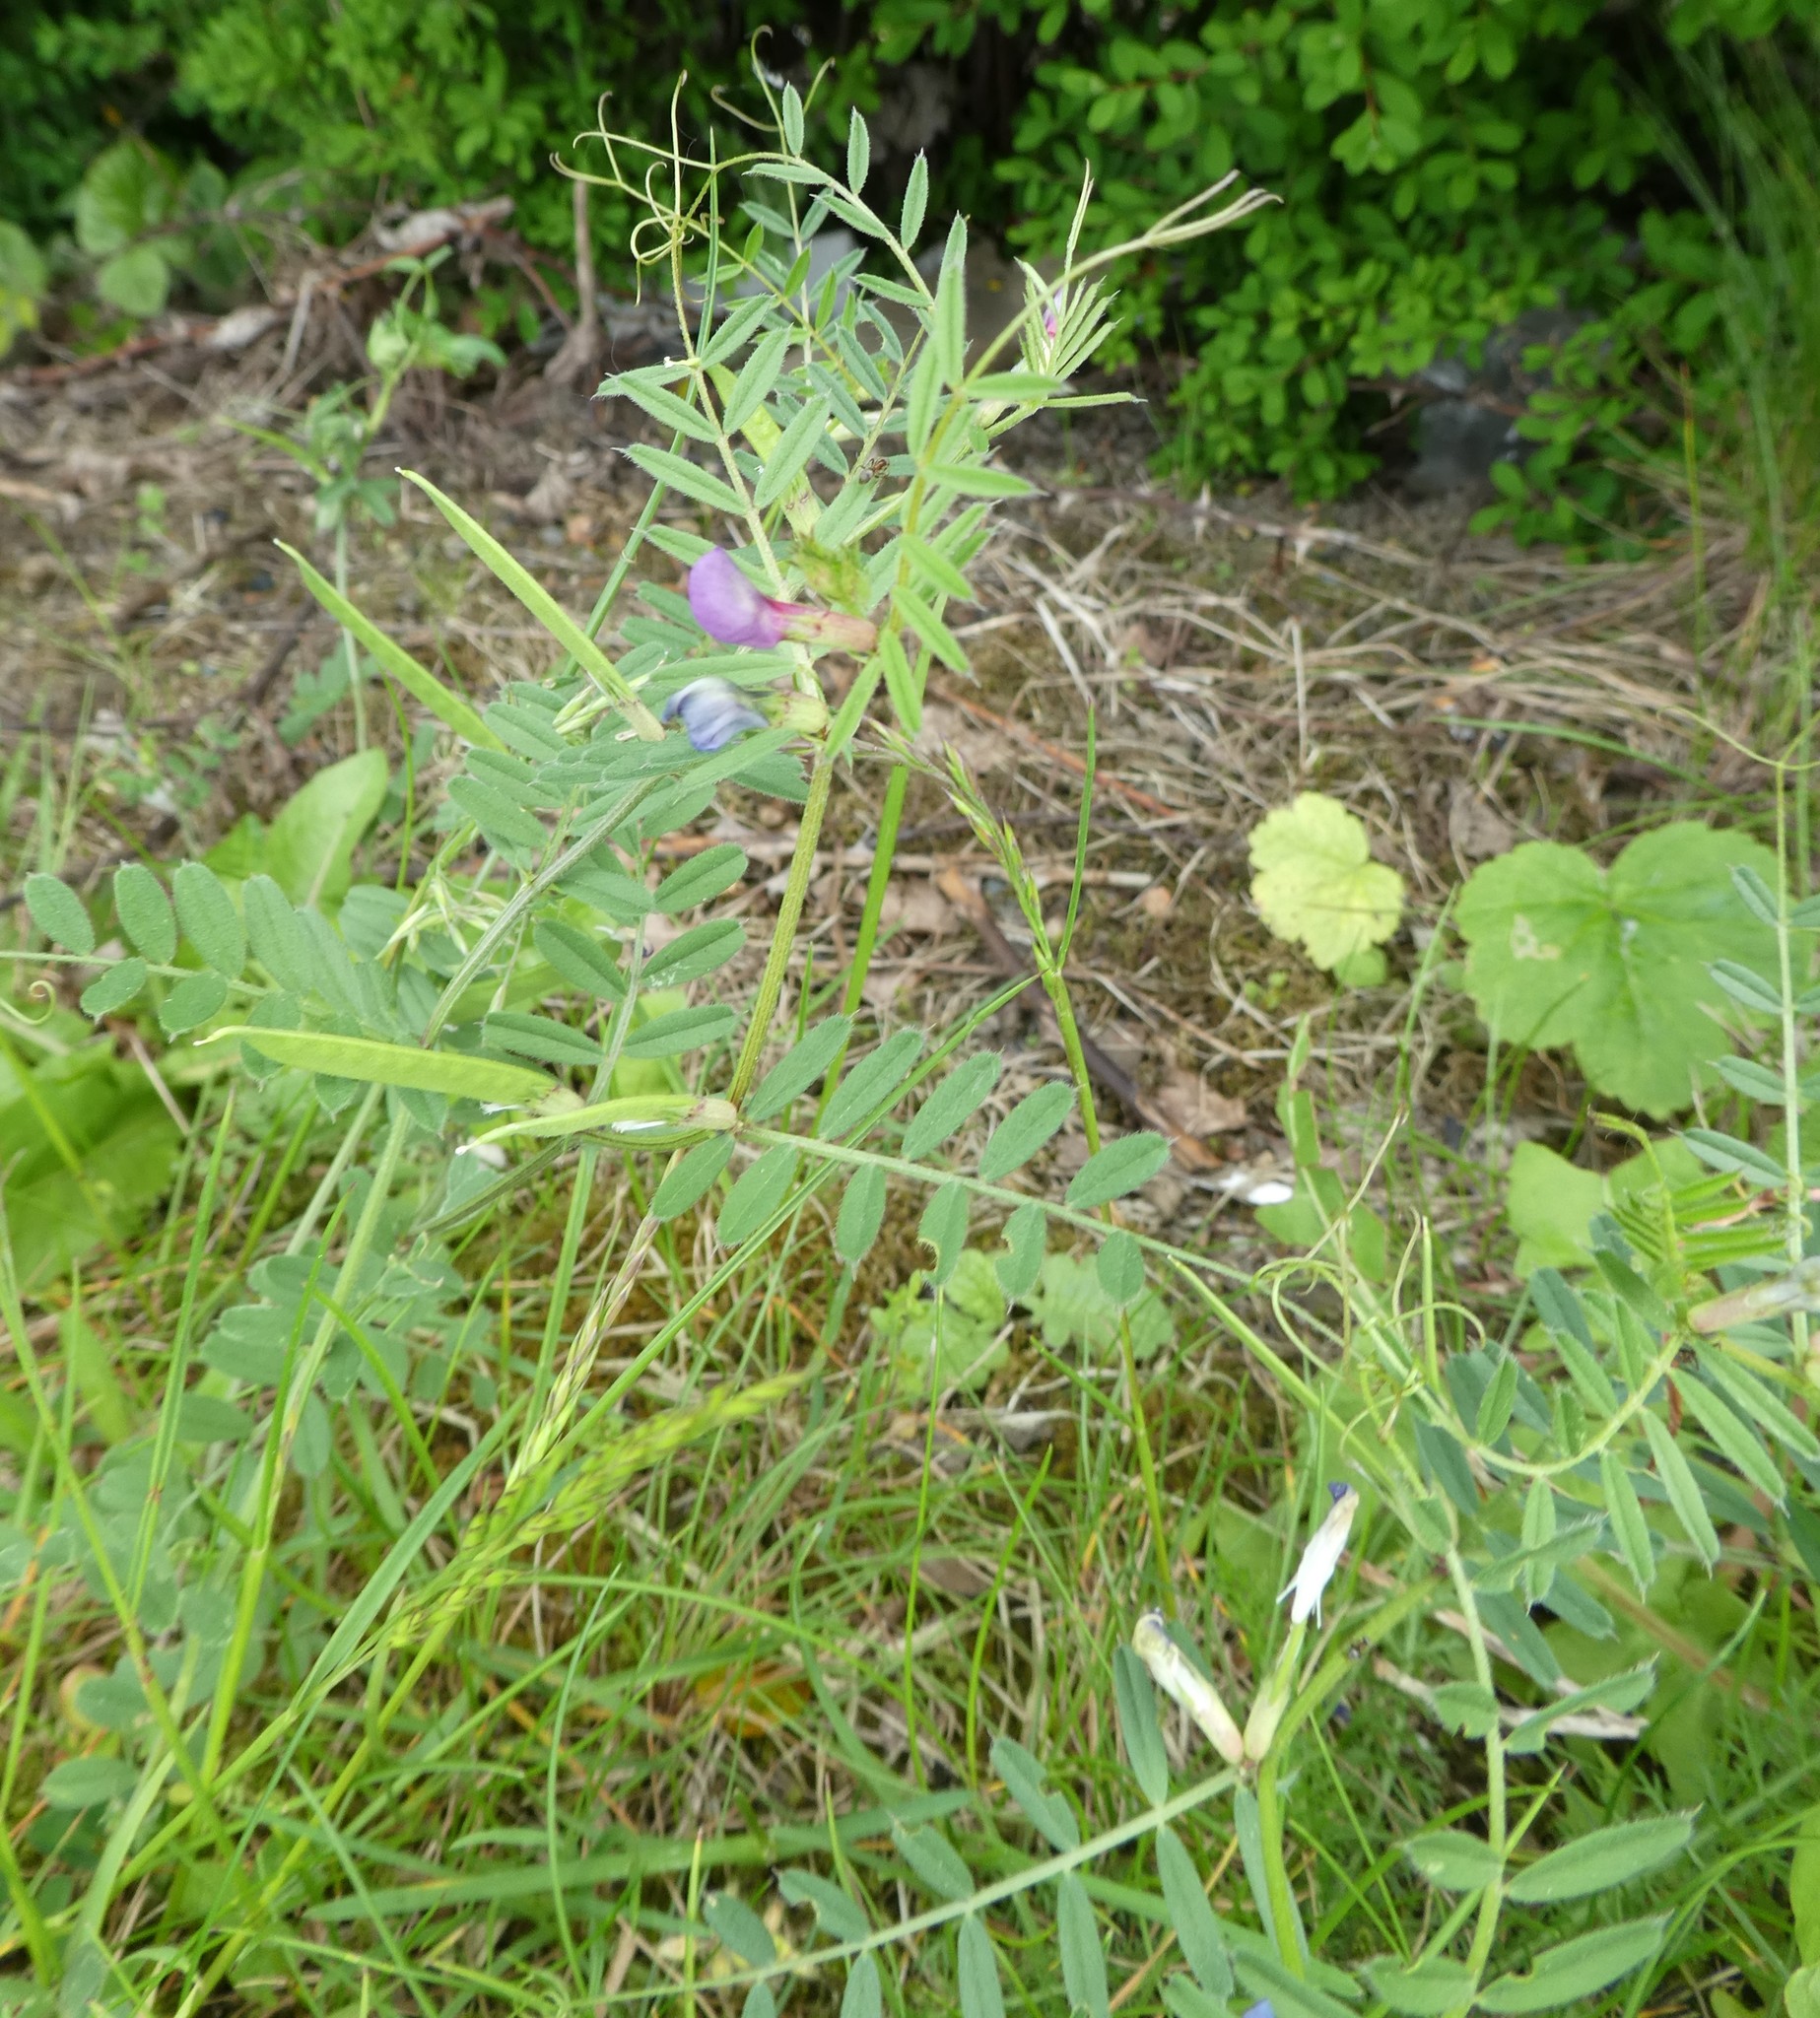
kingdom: Plantae
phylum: Tracheophyta
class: Magnoliopsida
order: Fabales
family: Fabaceae
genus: Vicia
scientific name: Vicia sativa
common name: Garden vetch
